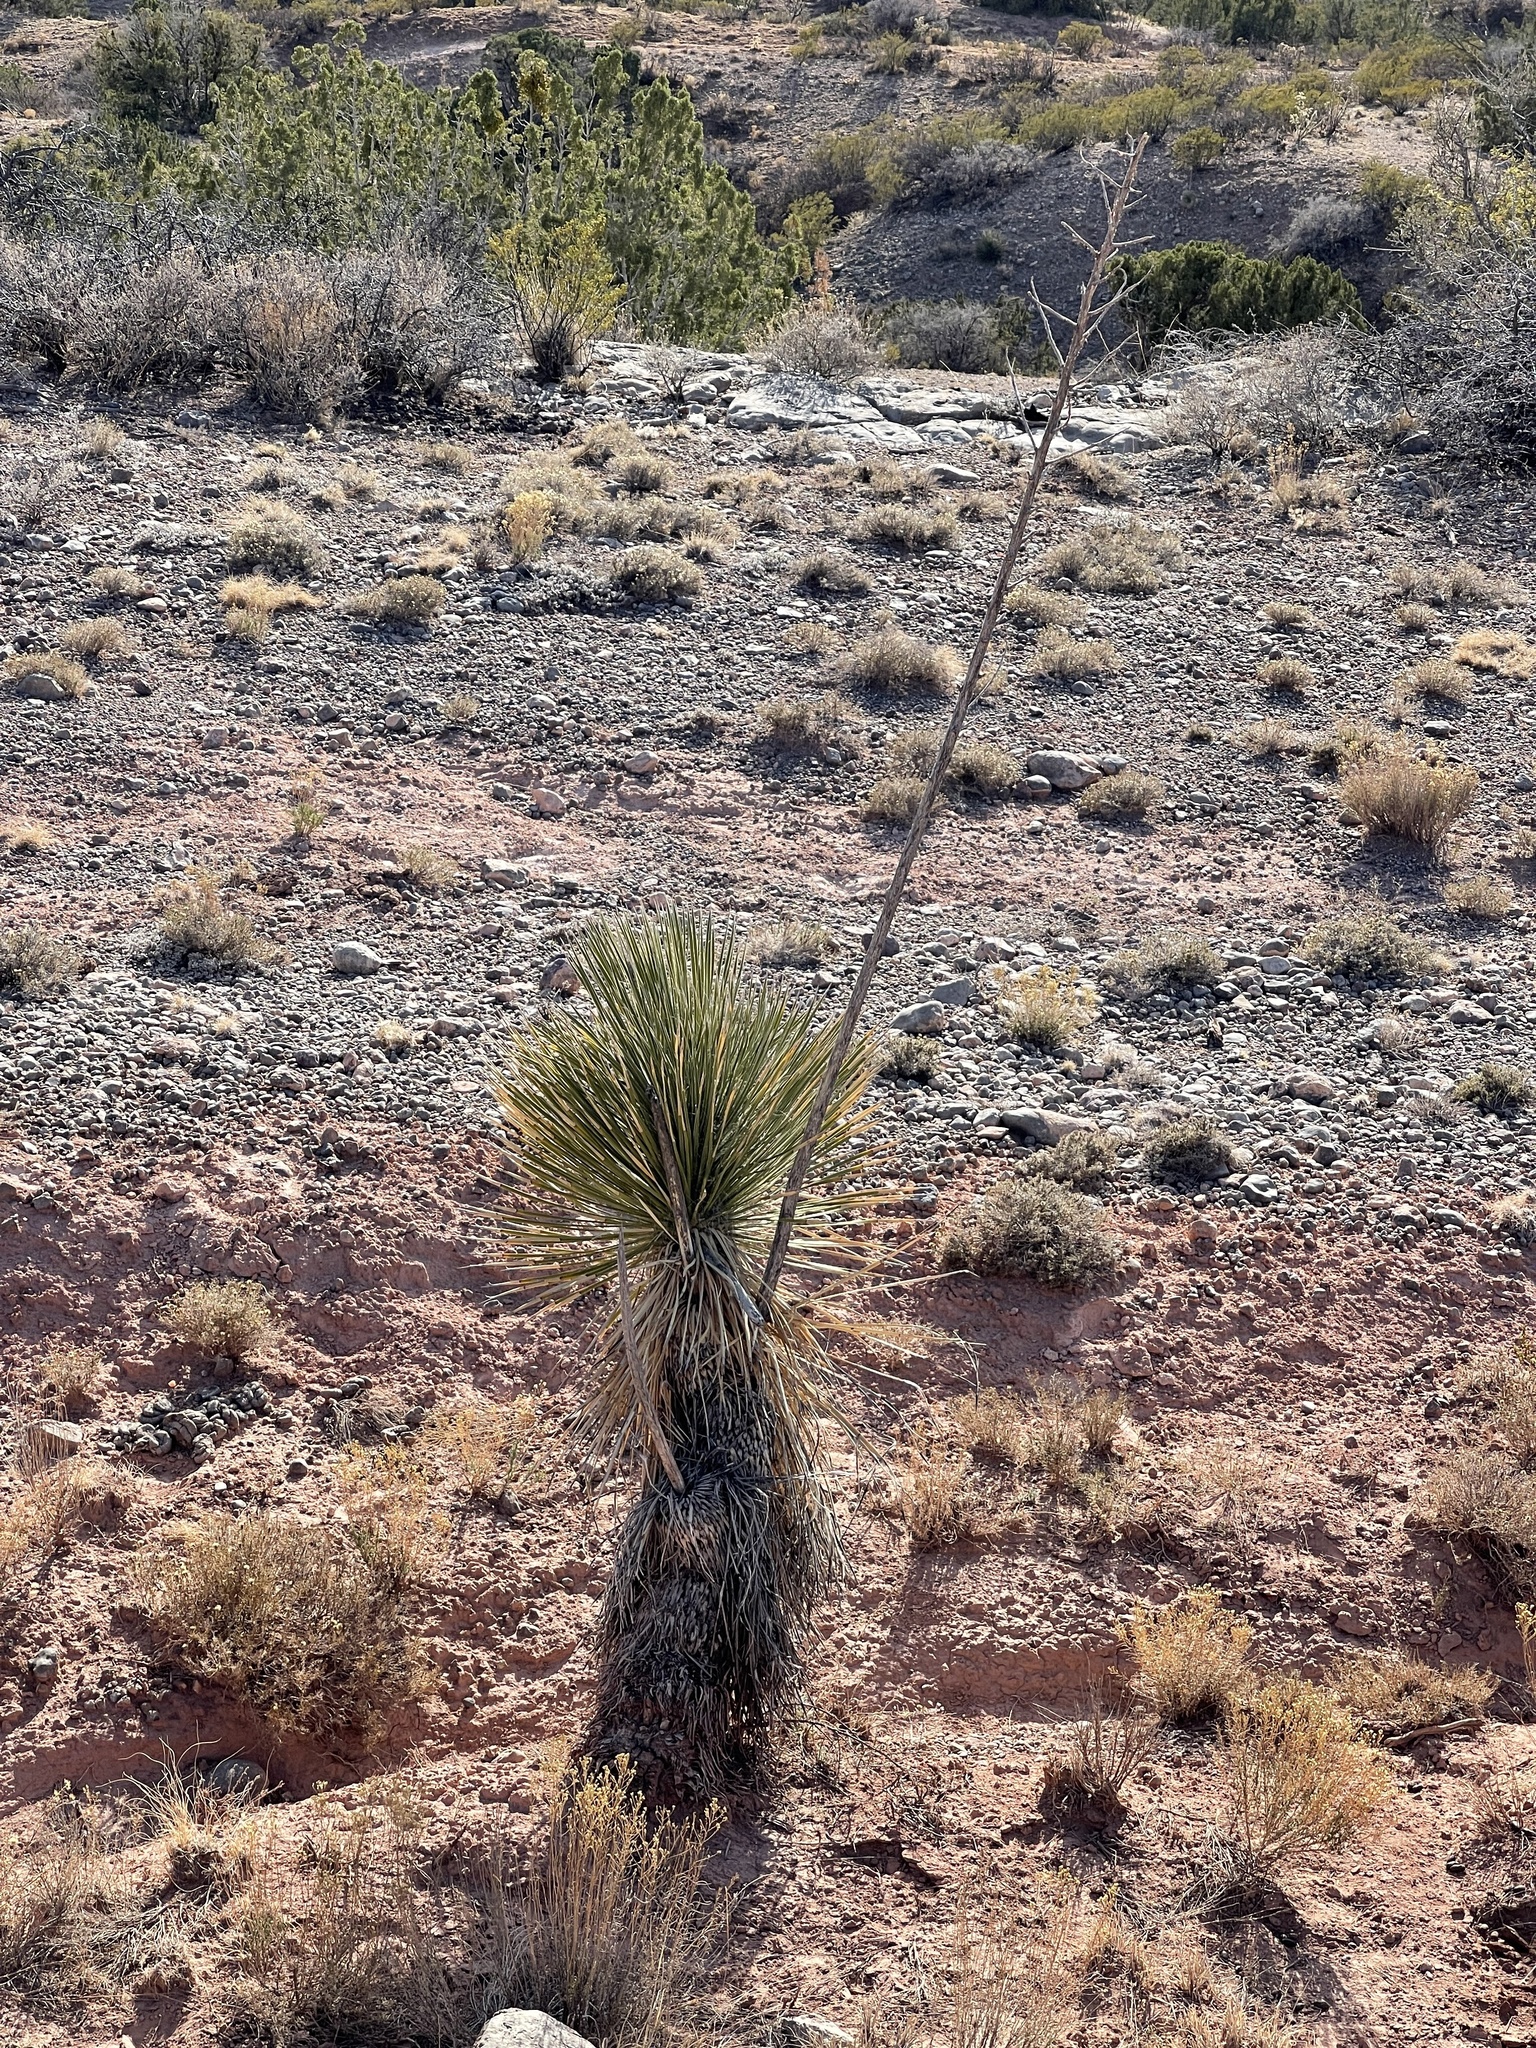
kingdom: Plantae
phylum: Tracheophyta
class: Liliopsida
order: Asparagales
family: Asparagaceae
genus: Yucca
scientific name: Yucca elata
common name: Palmella
